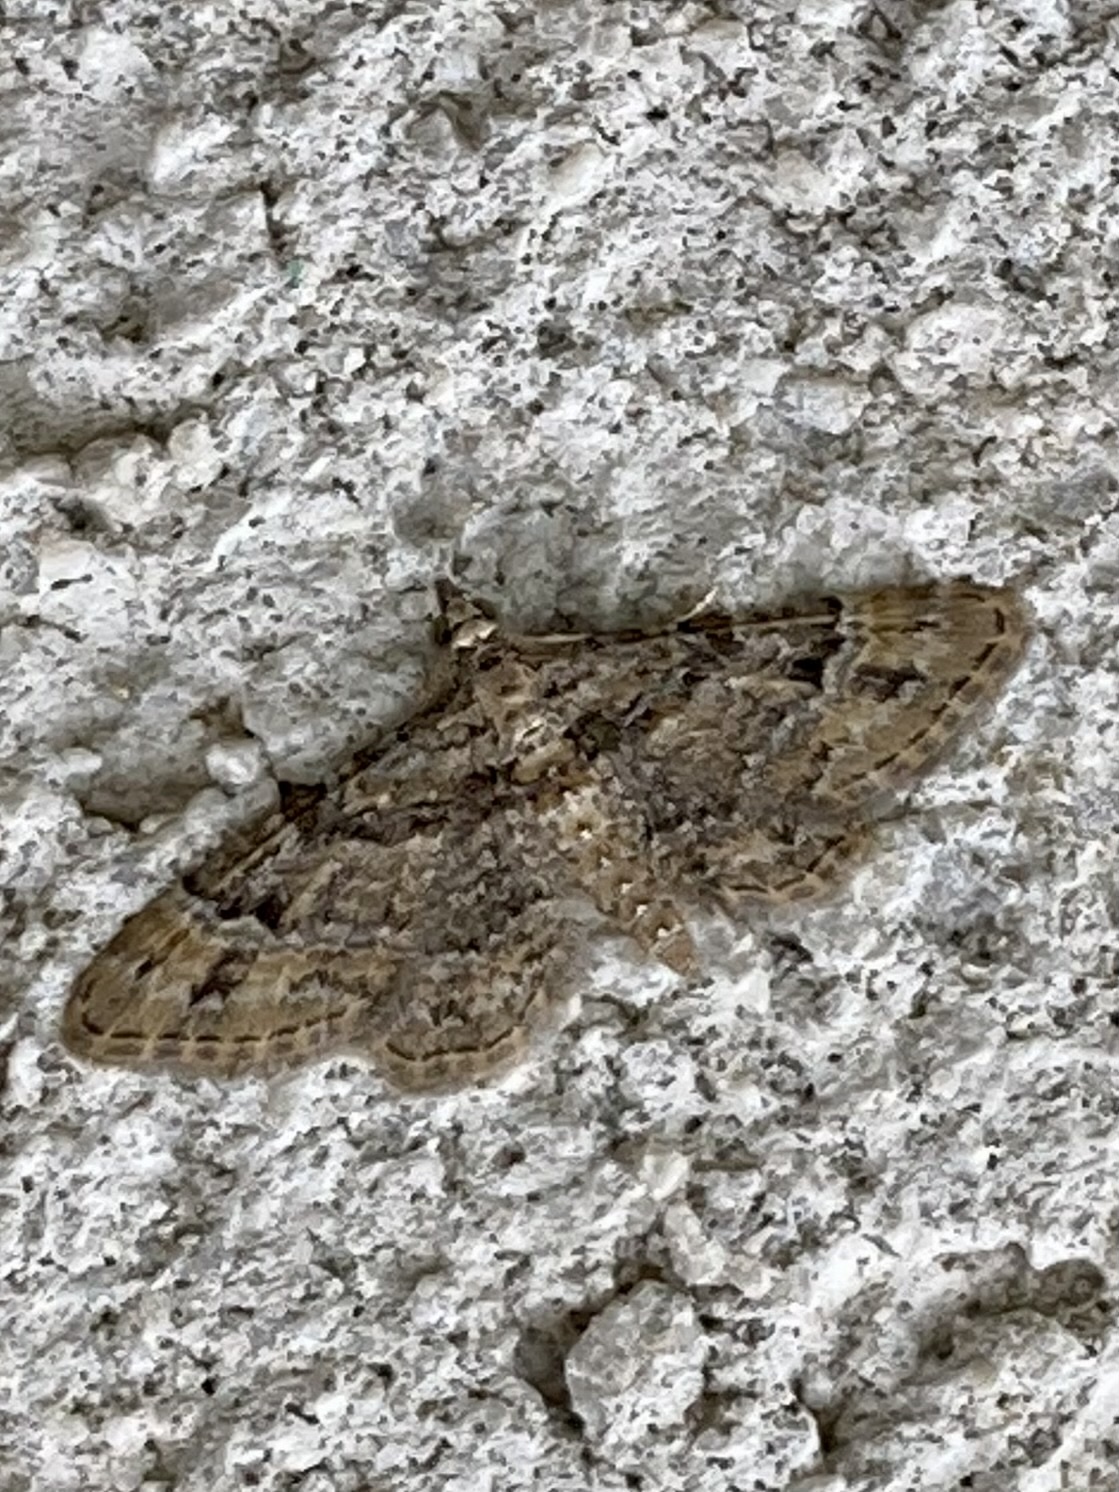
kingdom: Animalia
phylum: Arthropoda
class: Insecta
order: Lepidoptera
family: Geometridae
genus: Gymnoscelis
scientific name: Gymnoscelis rufifasciata
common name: Double-striped pug
